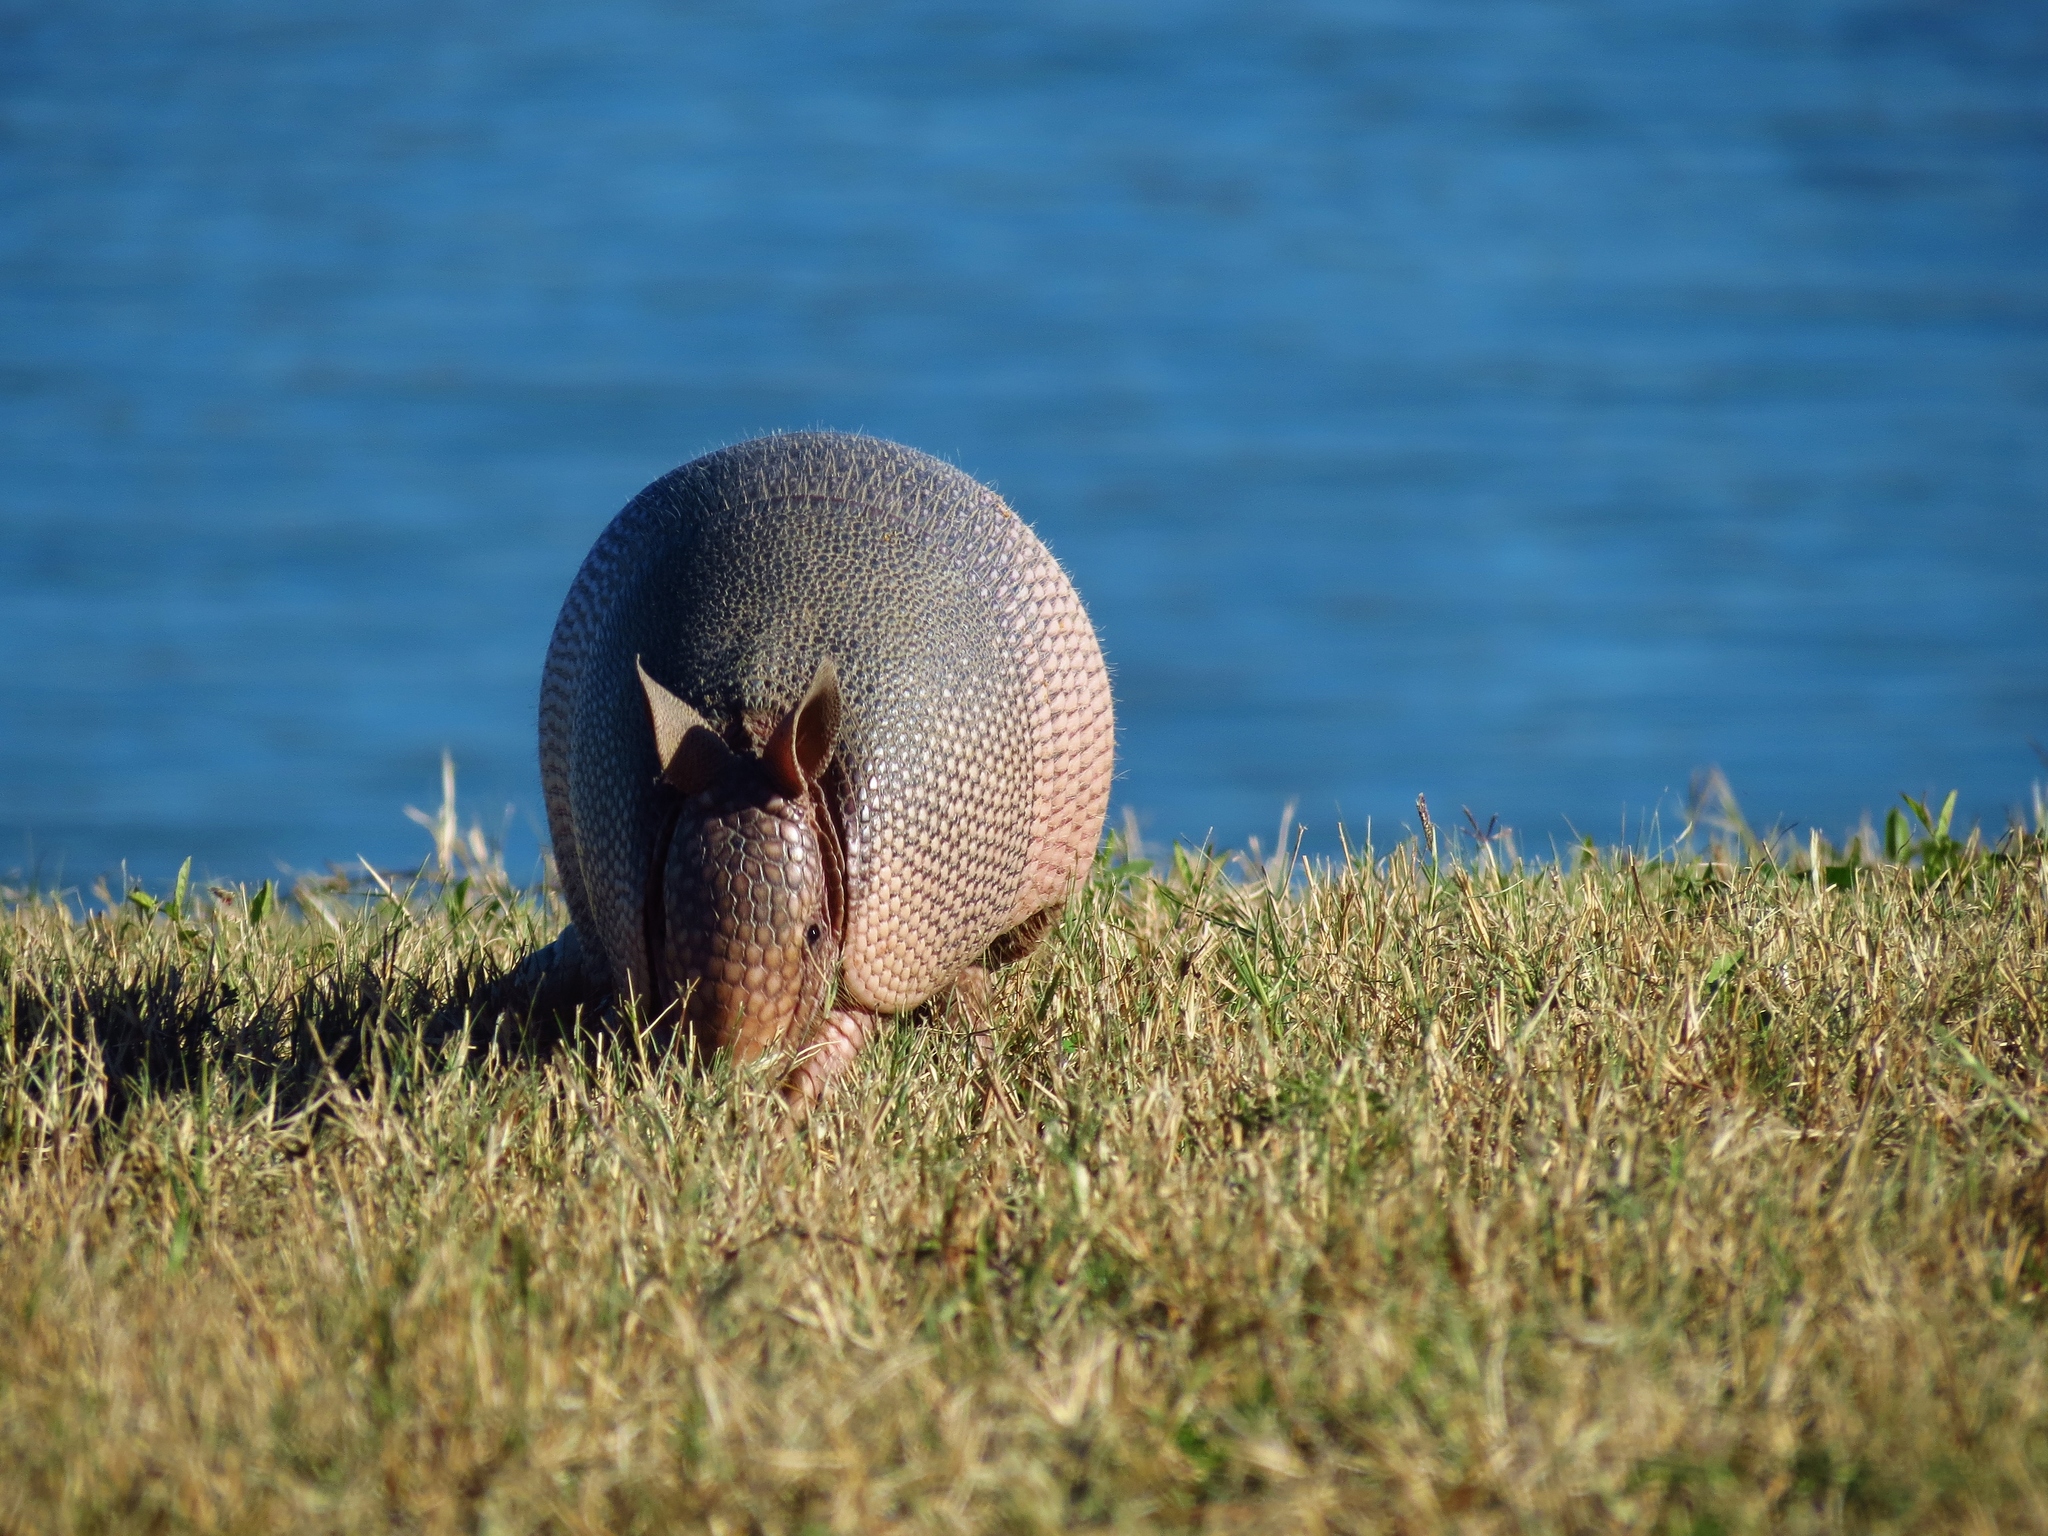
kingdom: Animalia
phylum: Chordata
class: Mammalia
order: Cingulata
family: Dasypodidae
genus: Dasypus
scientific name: Dasypus novemcinctus
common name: Nine-banded armadillo
